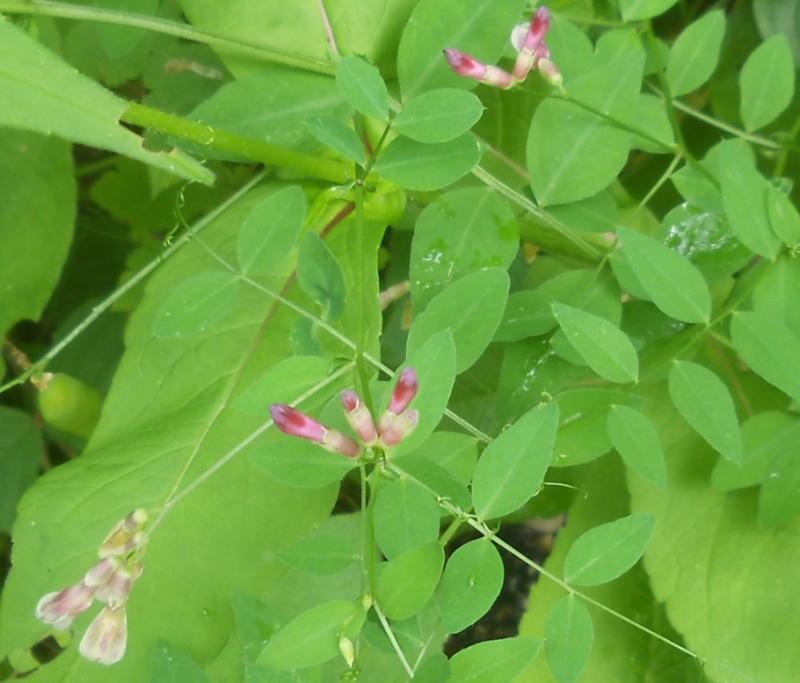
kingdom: Plantae
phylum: Tracheophyta
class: Magnoliopsida
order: Fabales
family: Fabaceae
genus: Vicia
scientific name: Vicia dumetorum
